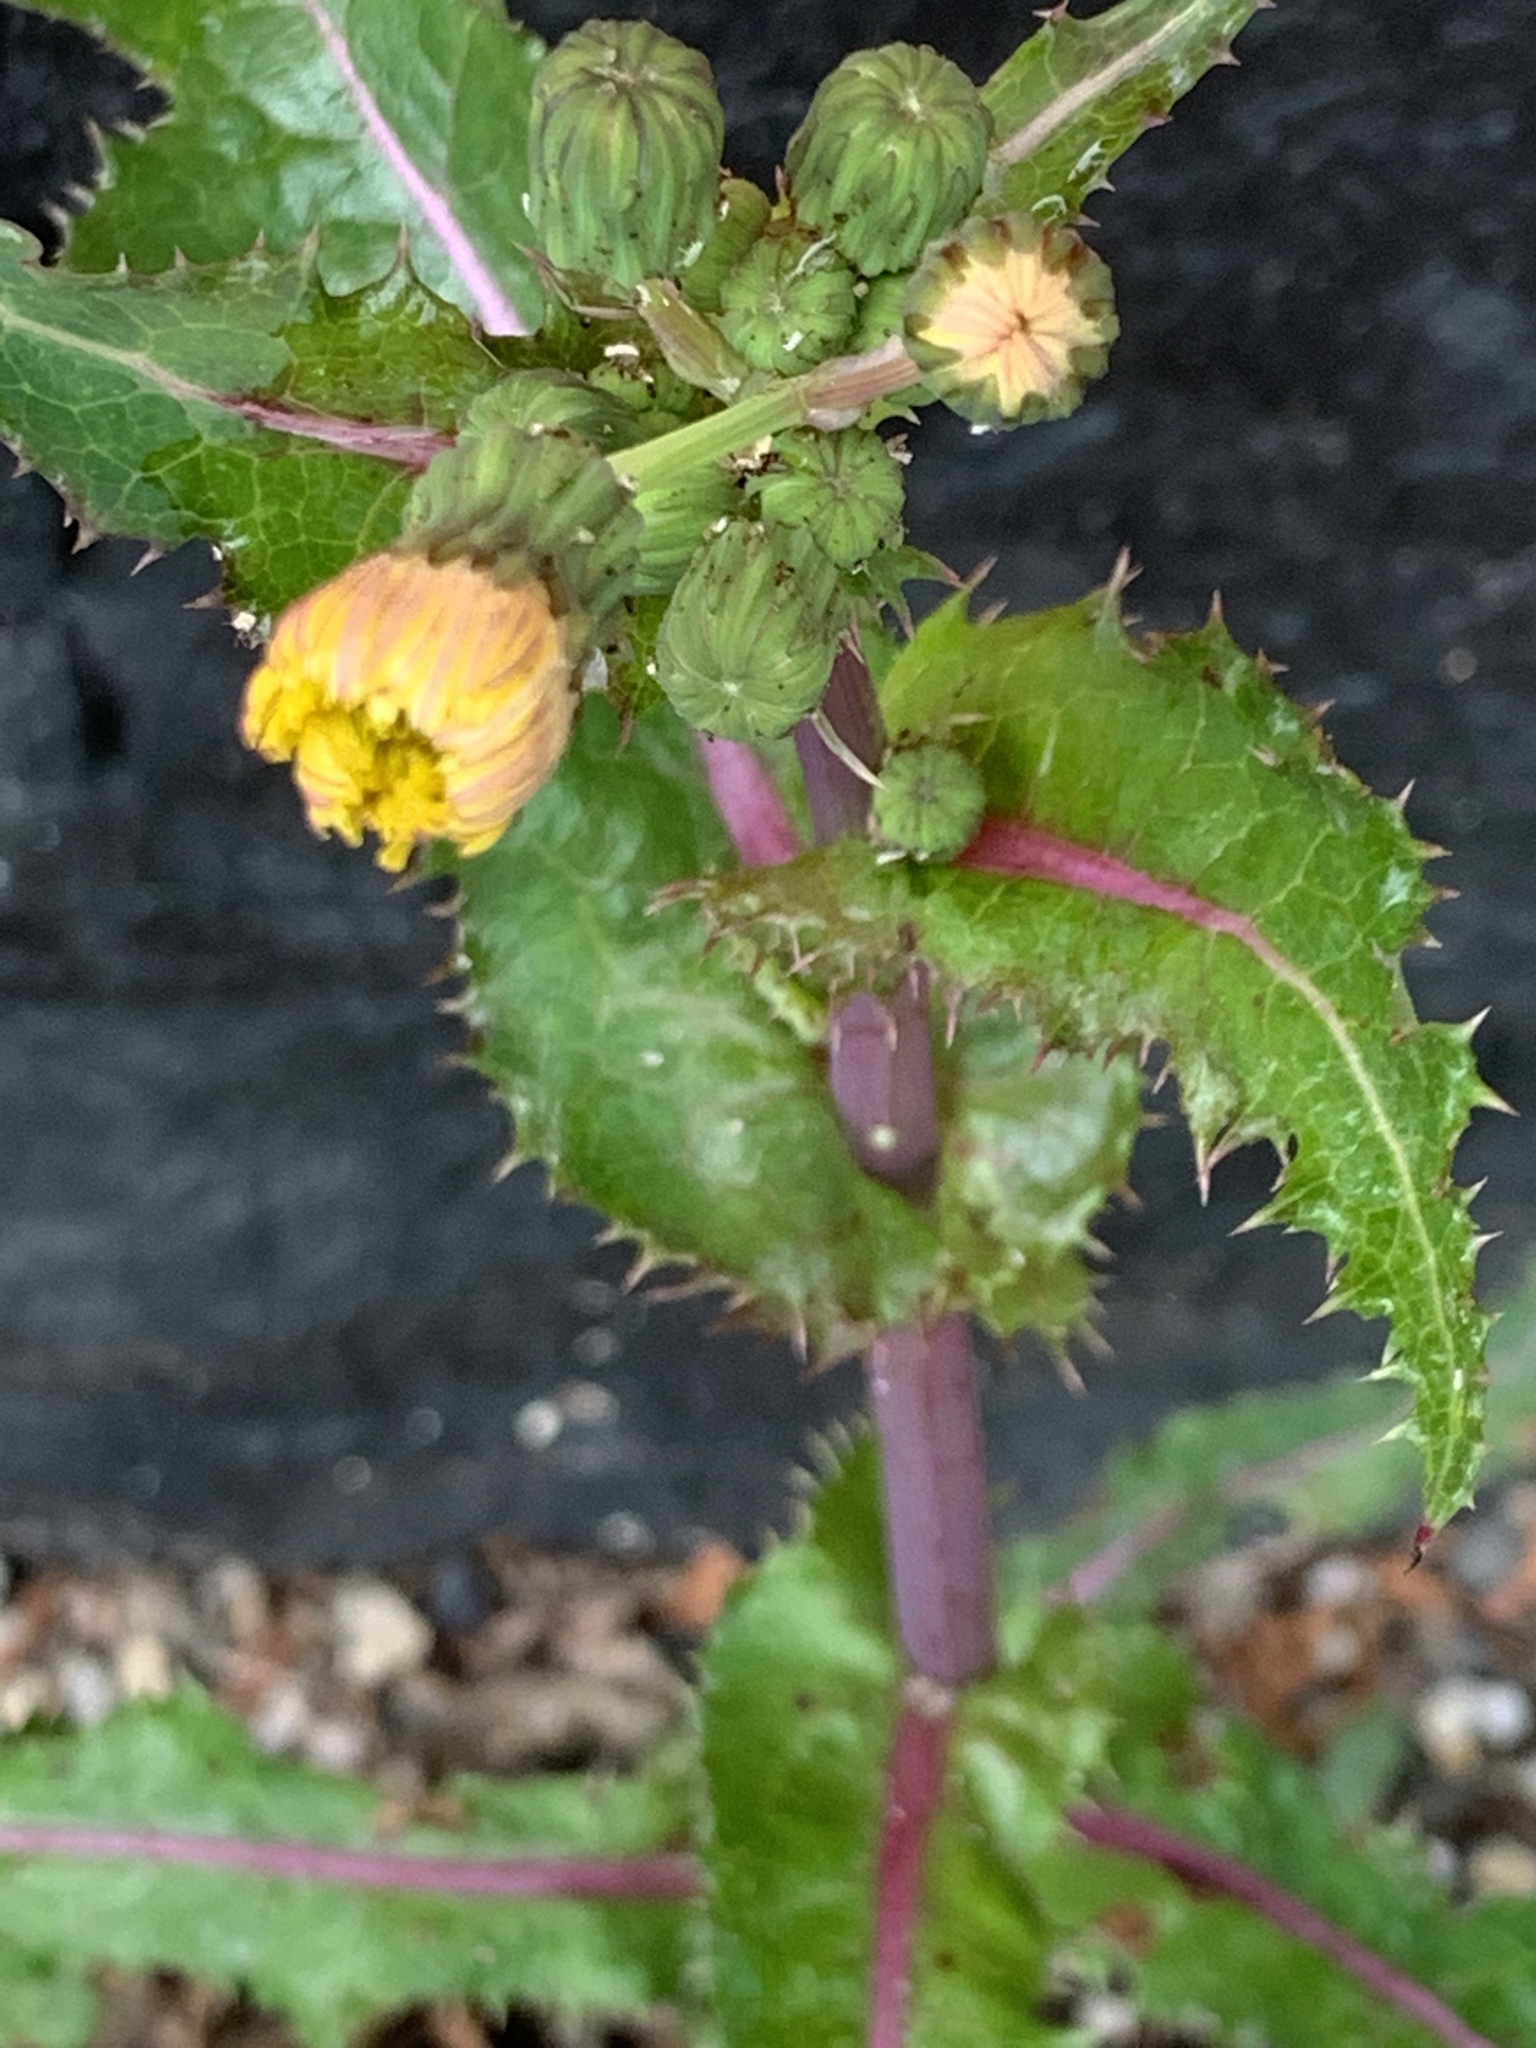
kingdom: Plantae
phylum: Tracheophyta
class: Magnoliopsida
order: Asterales
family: Asteraceae
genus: Sonchus
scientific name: Sonchus asper
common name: Prickly sow-thistle
